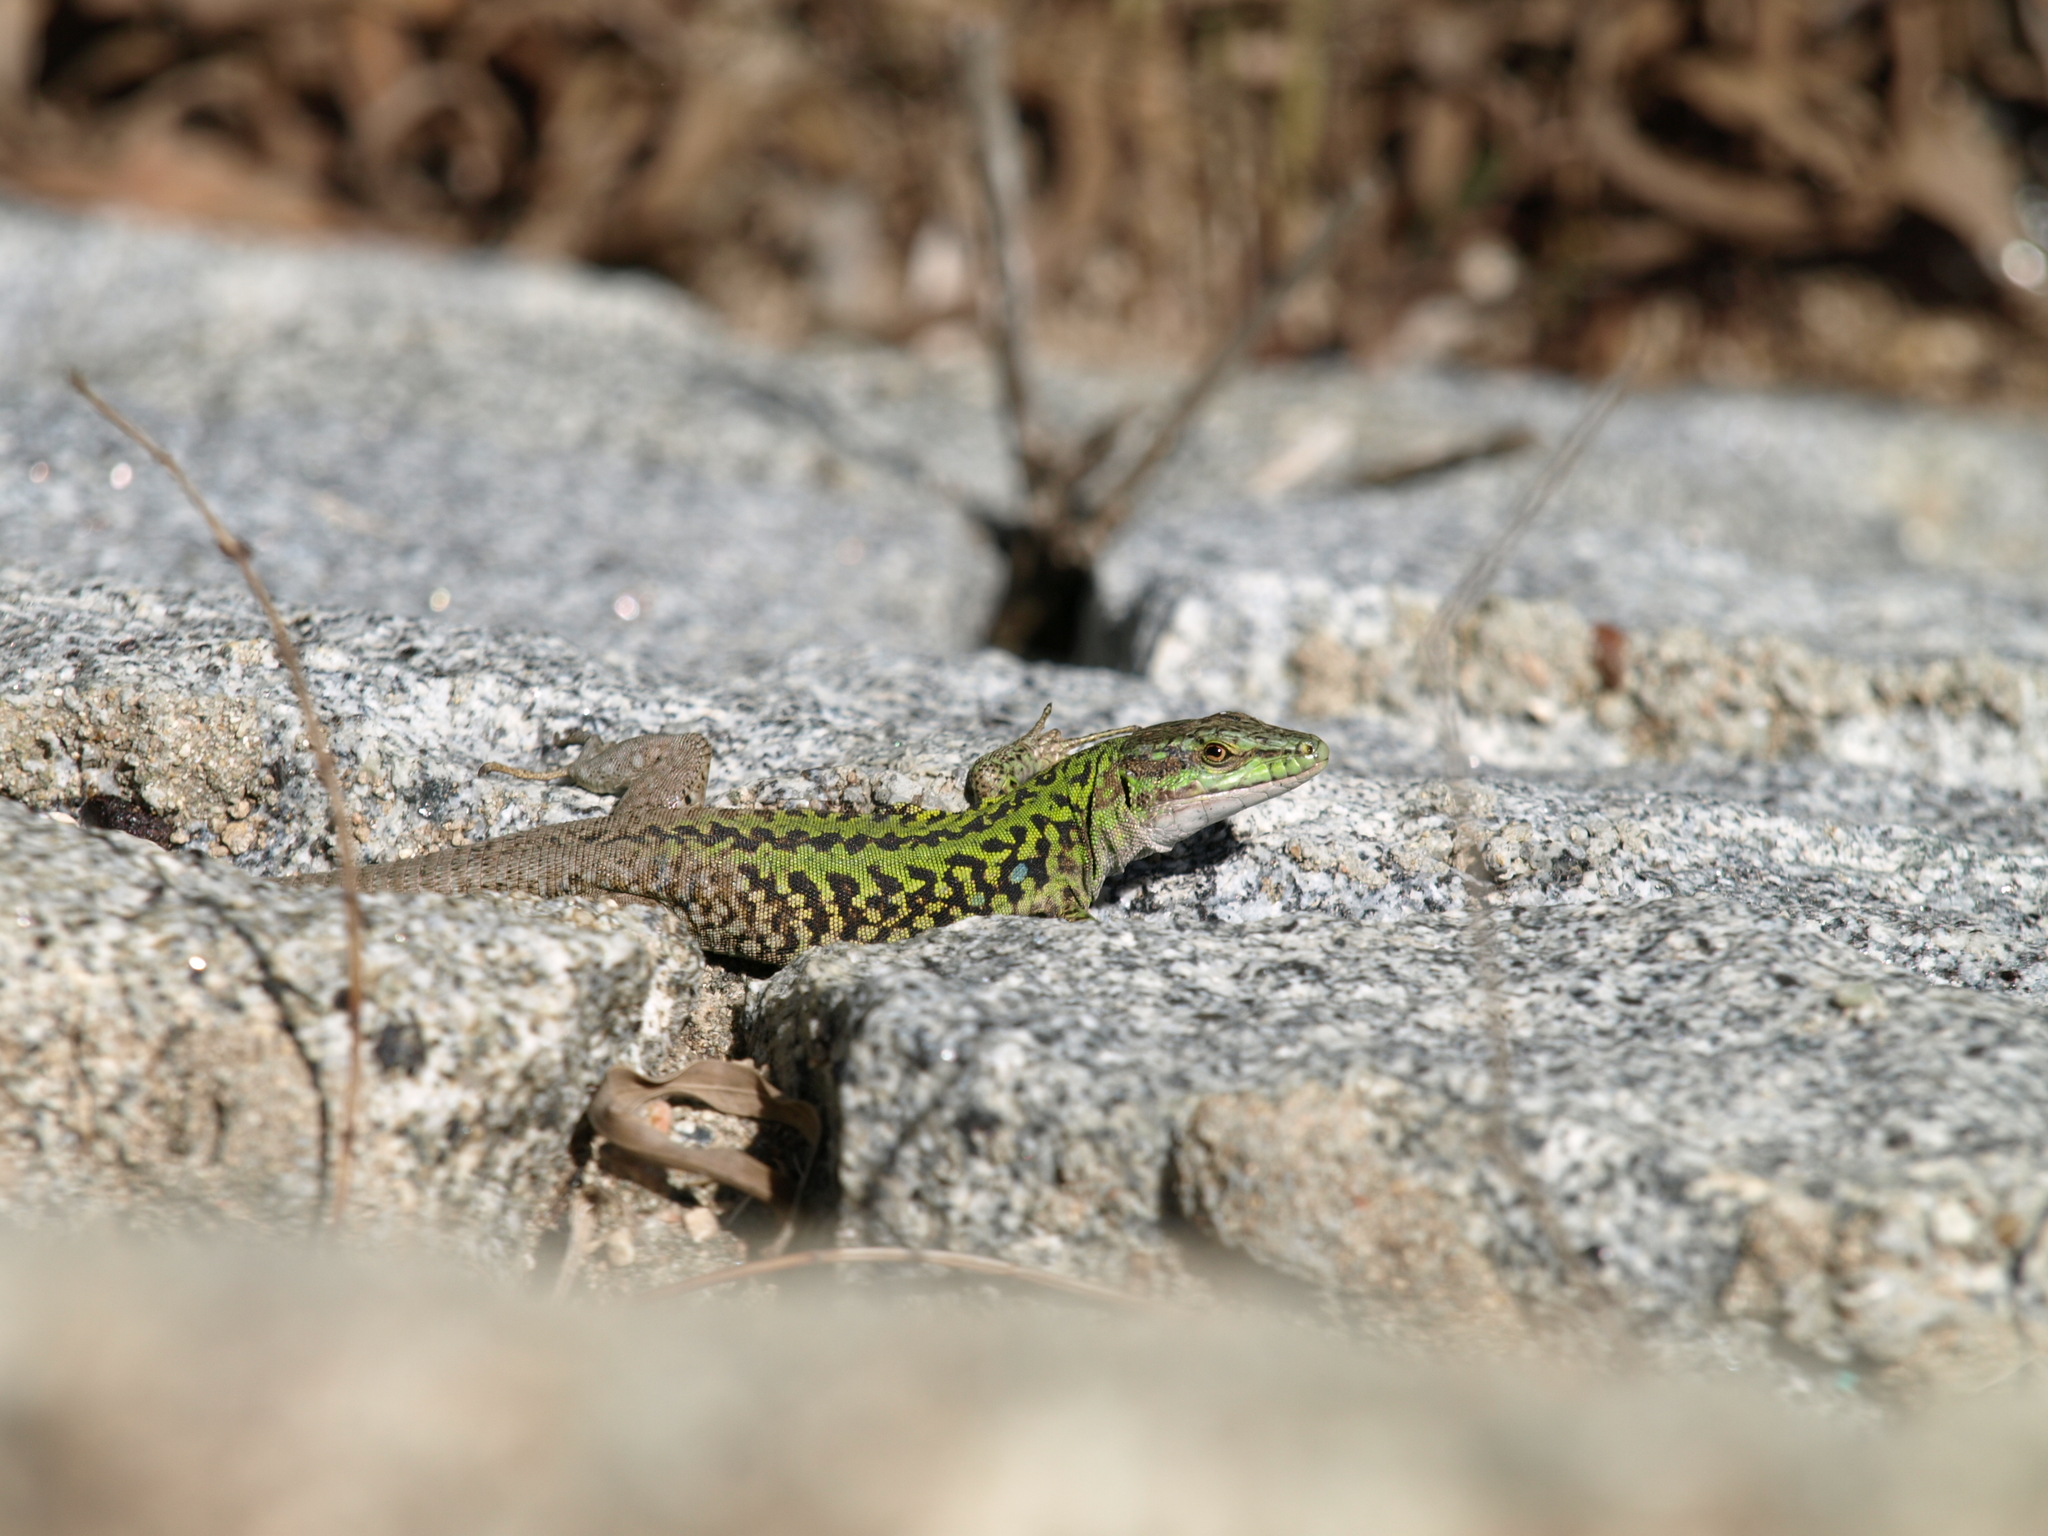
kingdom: Animalia
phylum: Chordata
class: Squamata
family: Lacertidae
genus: Podarcis
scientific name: Podarcis siculus
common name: Italian wall lizard
